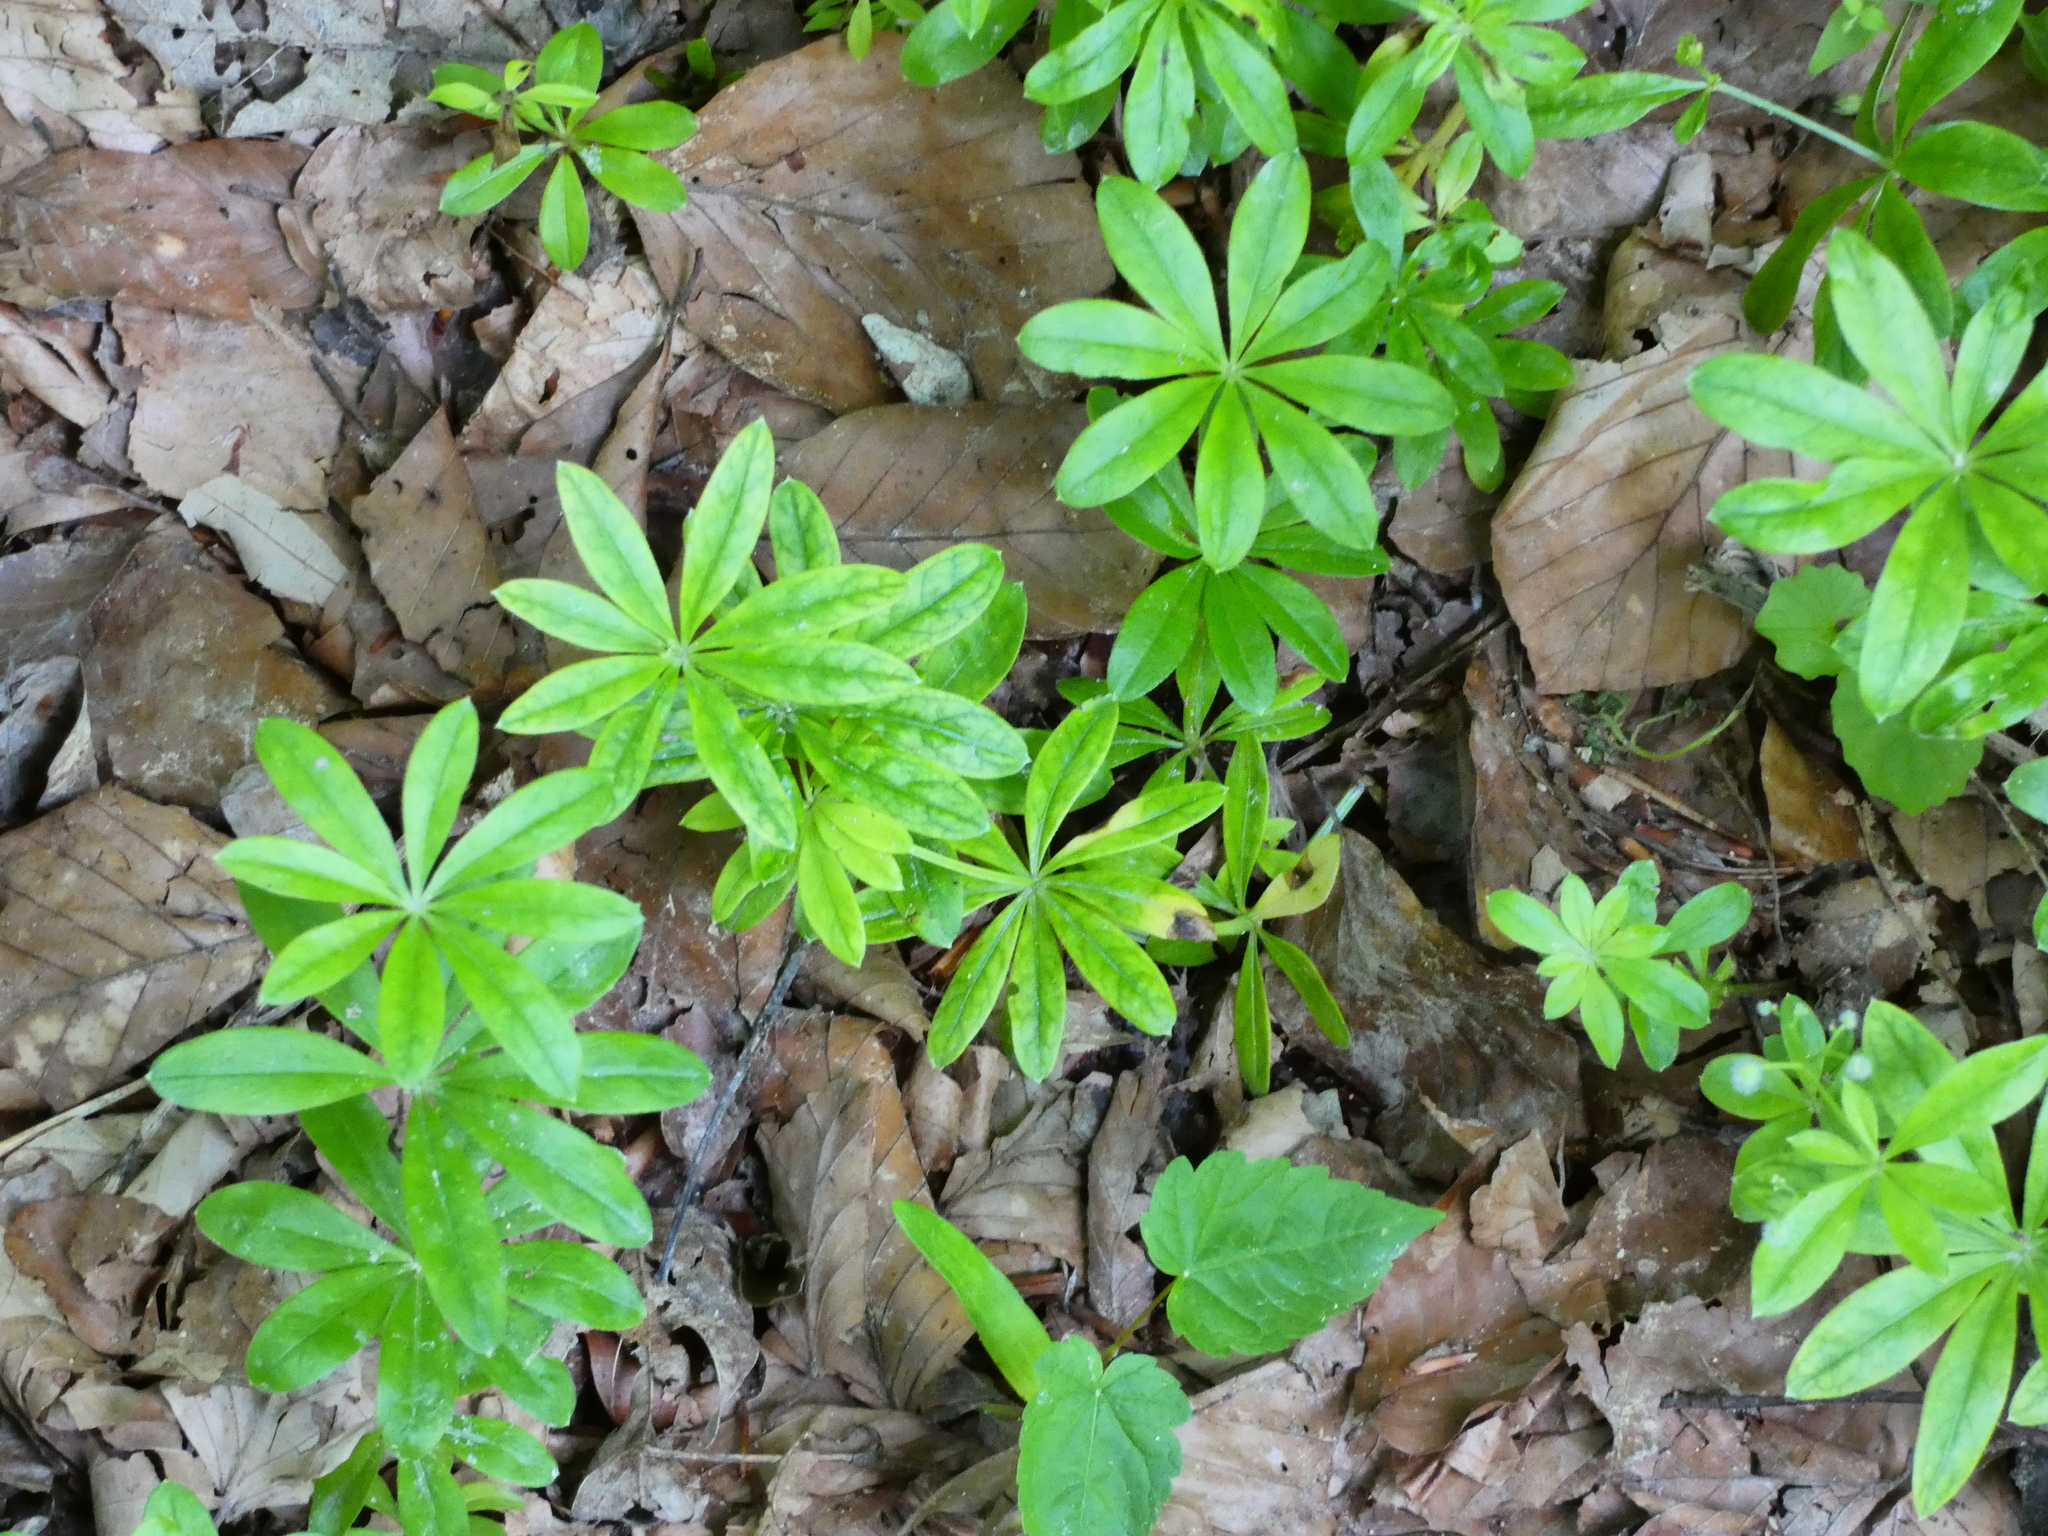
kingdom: Plantae
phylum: Tracheophyta
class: Magnoliopsida
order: Gentianales
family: Rubiaceae
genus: Galium
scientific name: Galium odoratum
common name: Sweet woodruff
